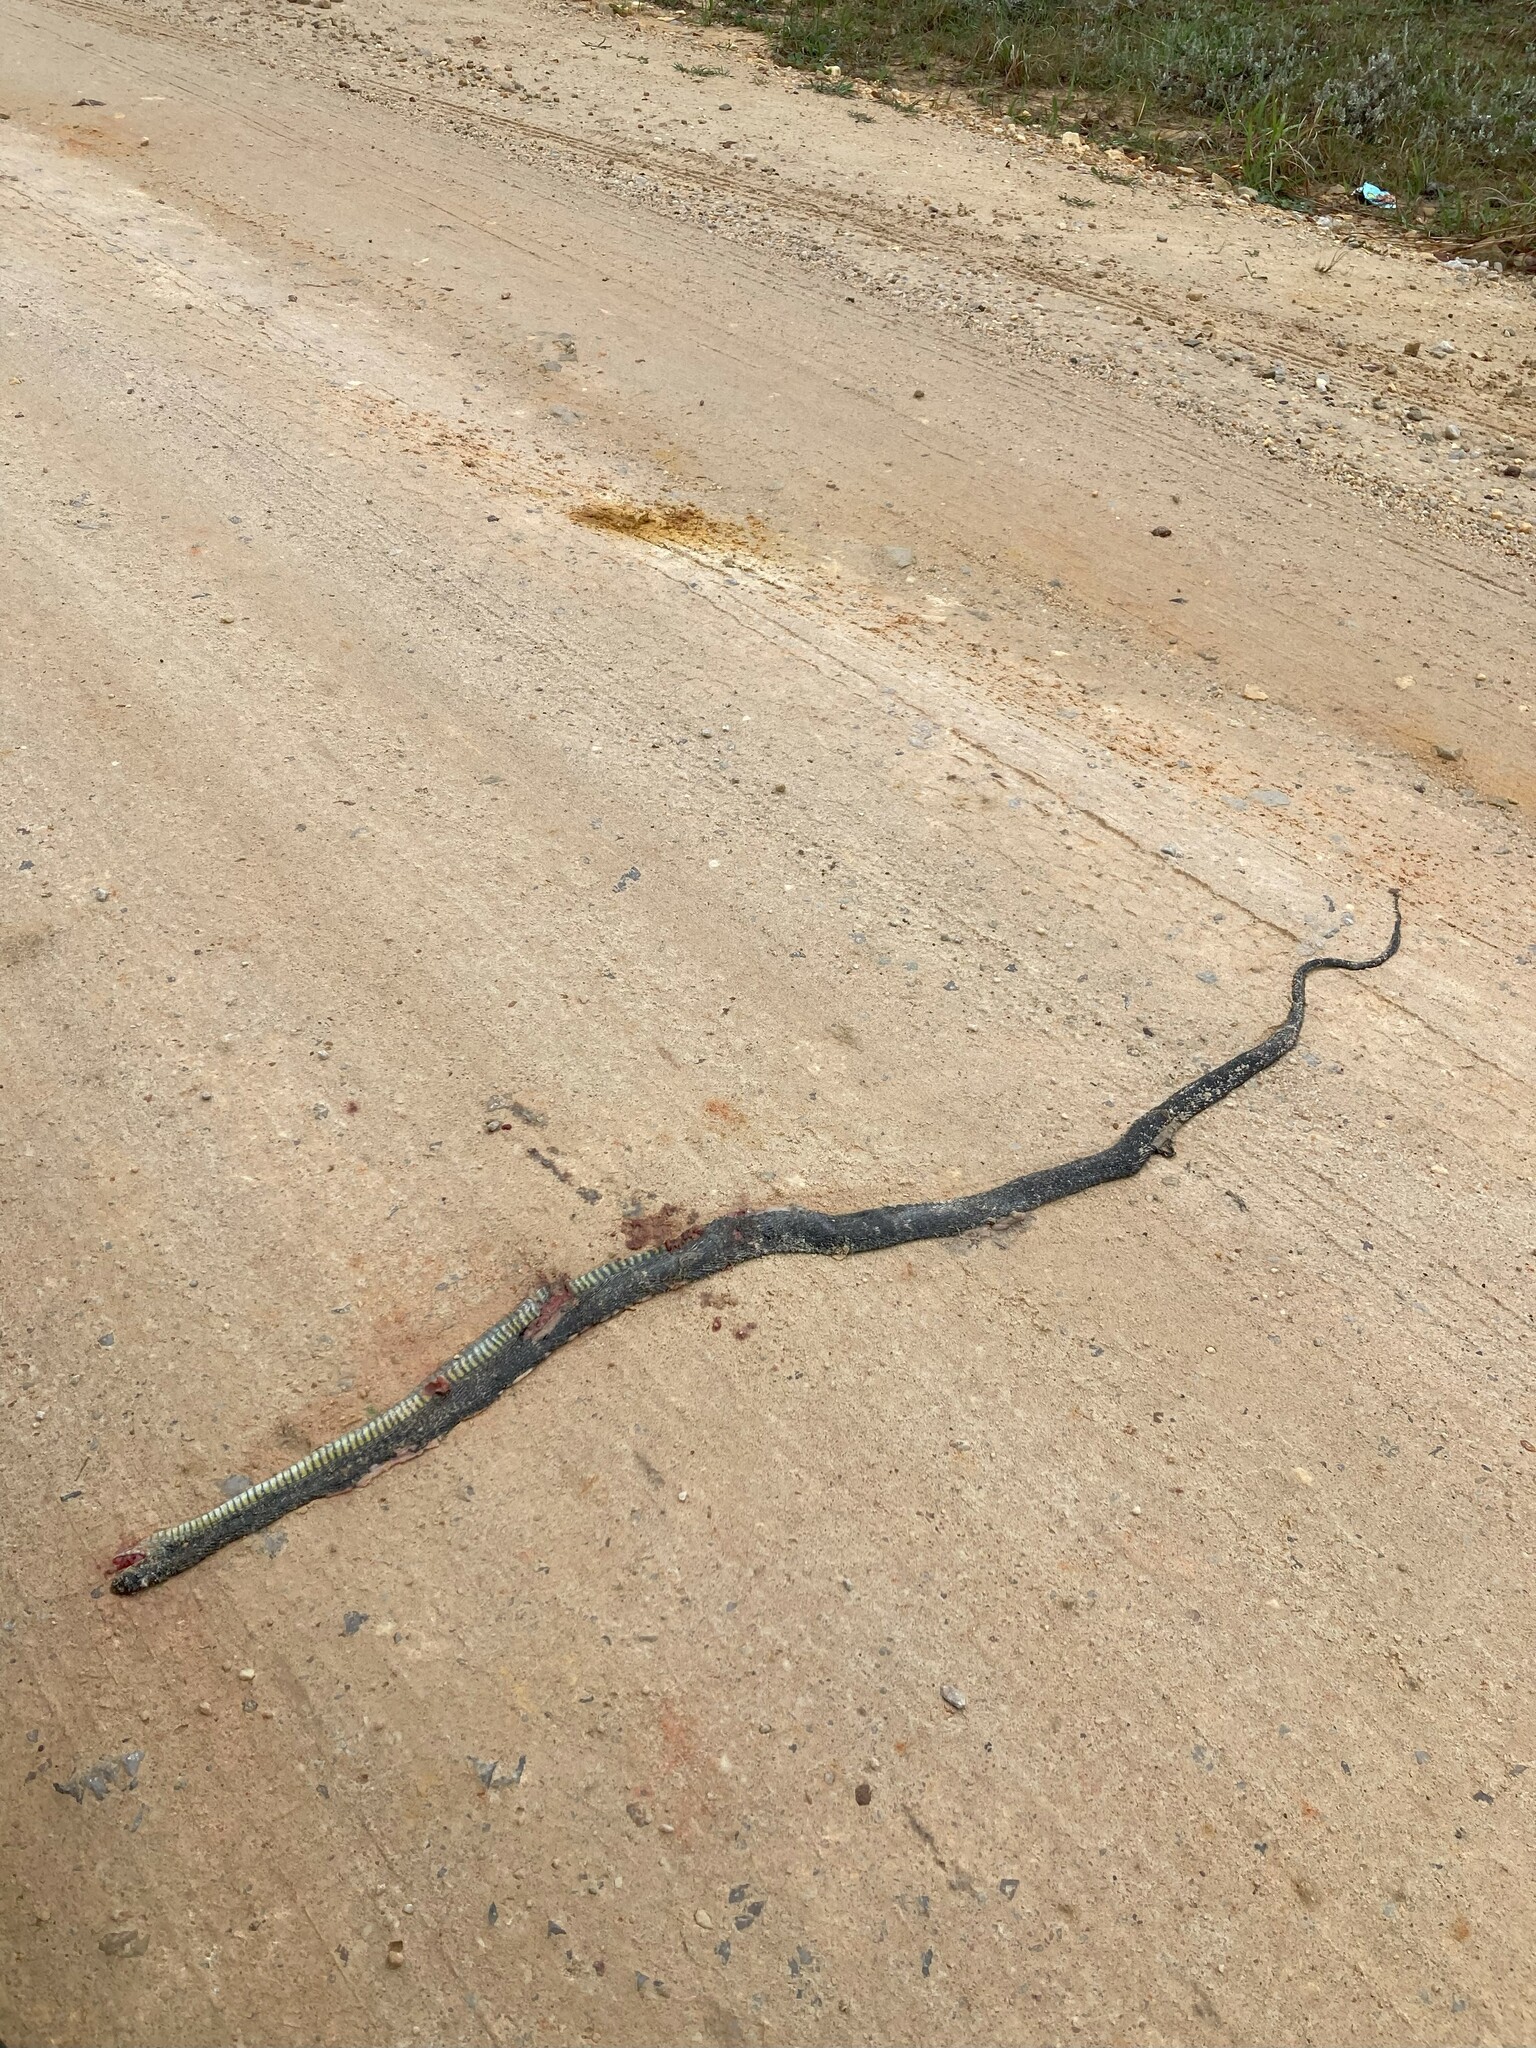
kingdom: Animalia
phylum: Chordata
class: Squamata
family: Colubridae
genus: Dispholidus
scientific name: Dispholidus typus
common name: Boomslang
